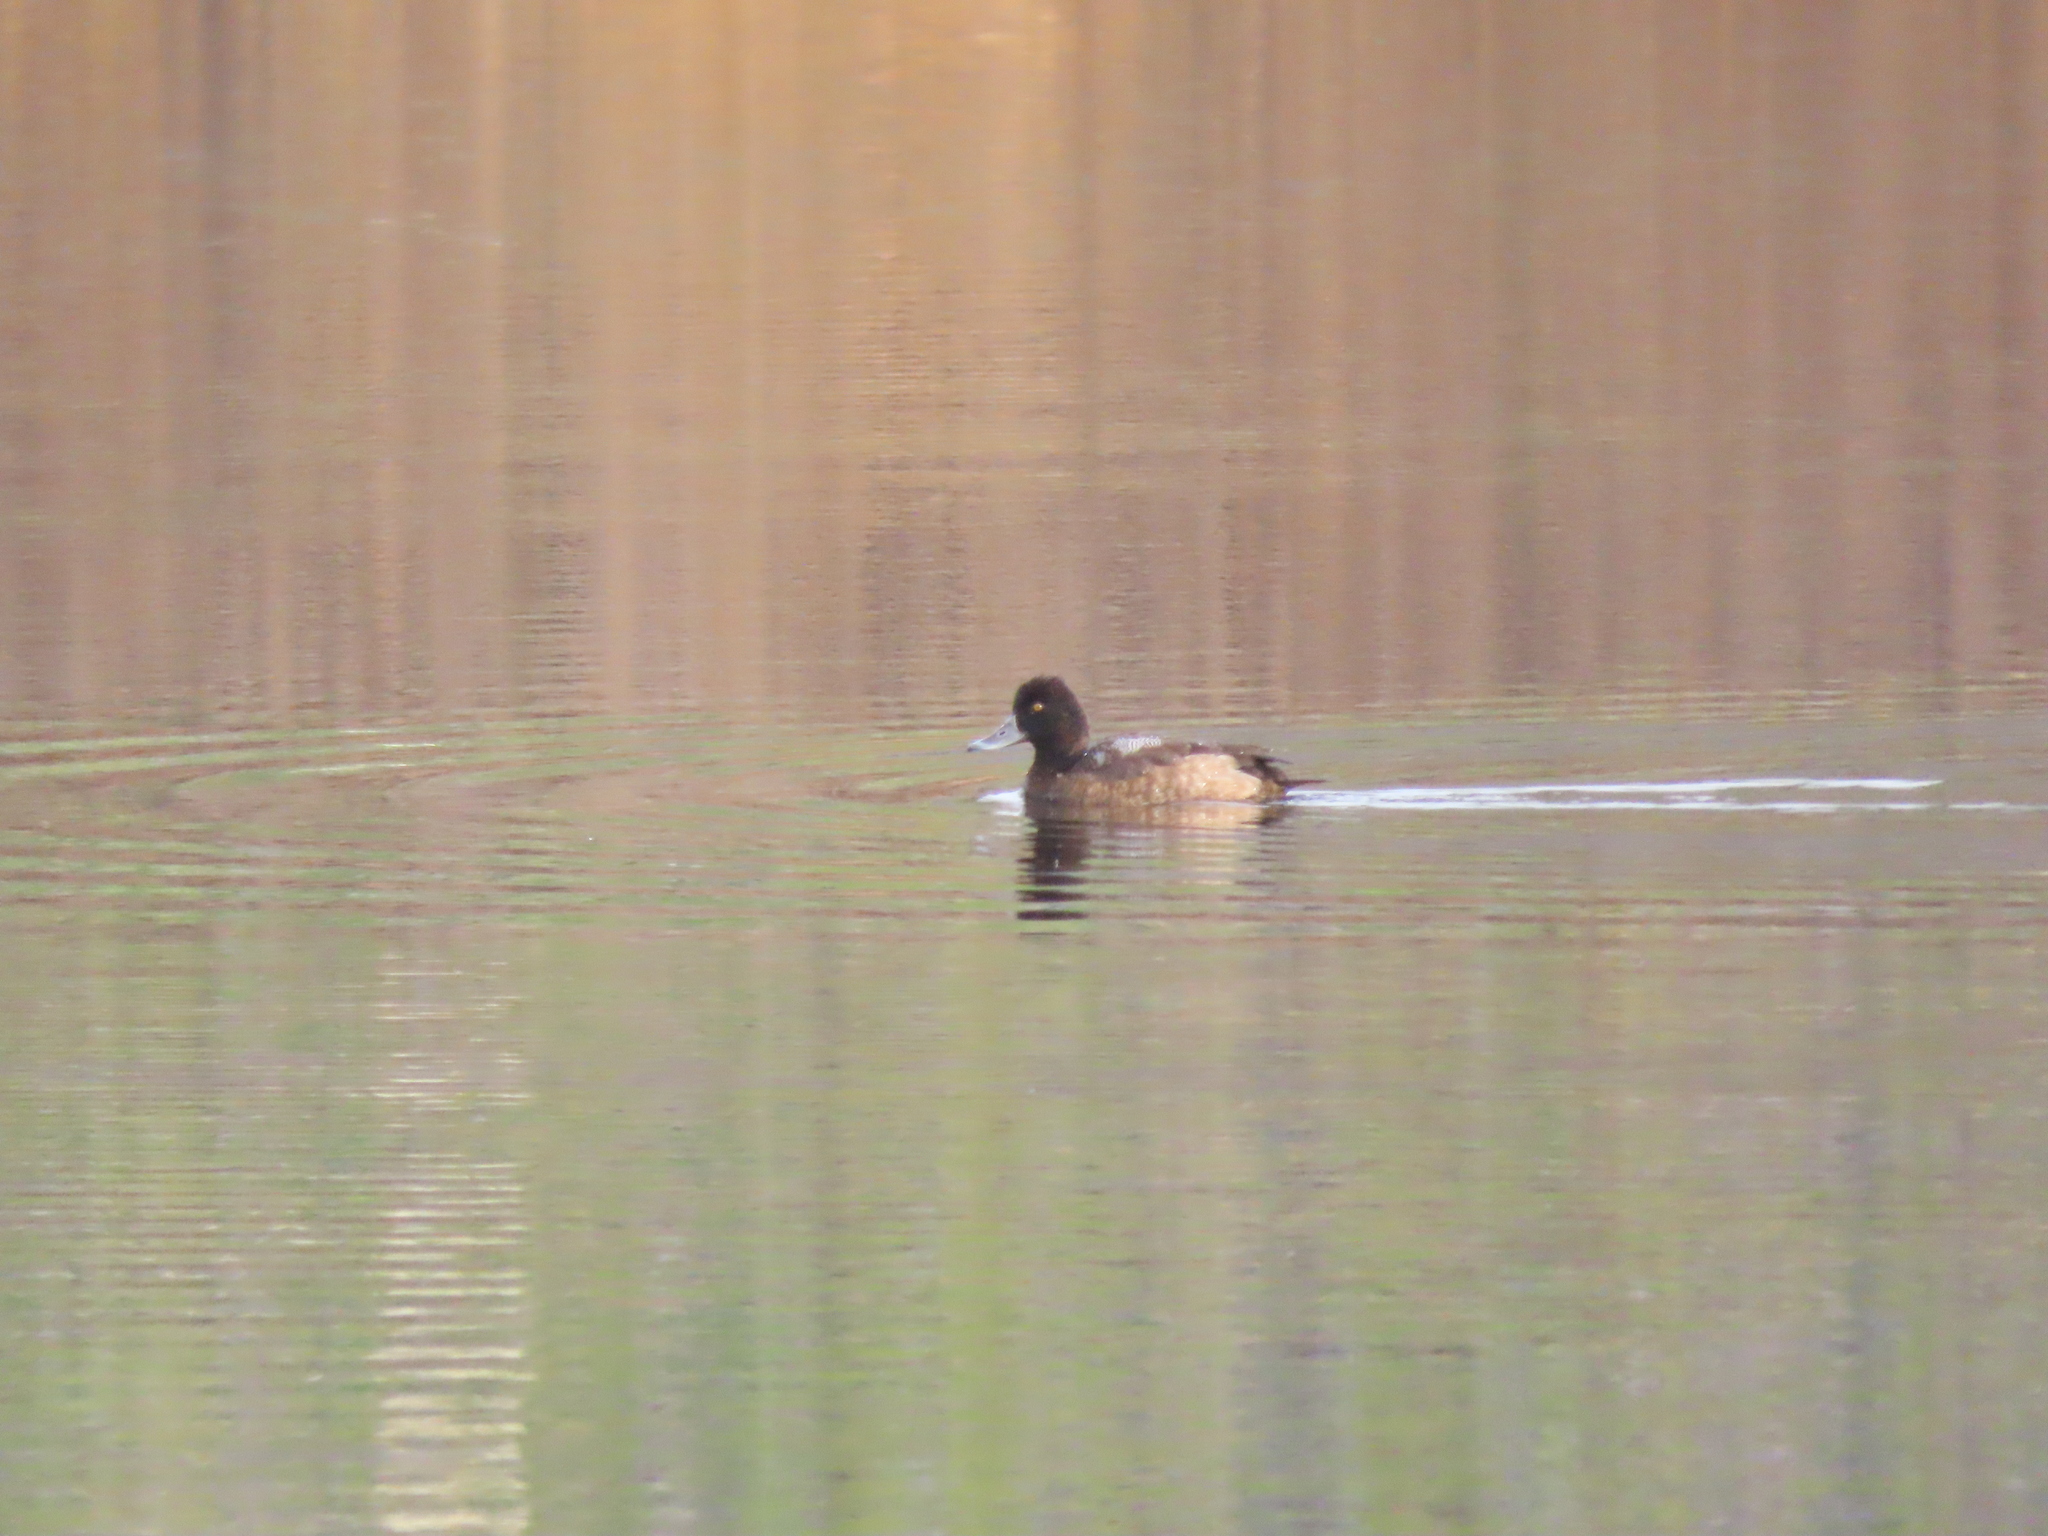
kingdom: Animalia
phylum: Chordata
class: Aves
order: Anseriformes
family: Anatidae
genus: Aythya
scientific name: Aythya affinis
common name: Lesser scaup
